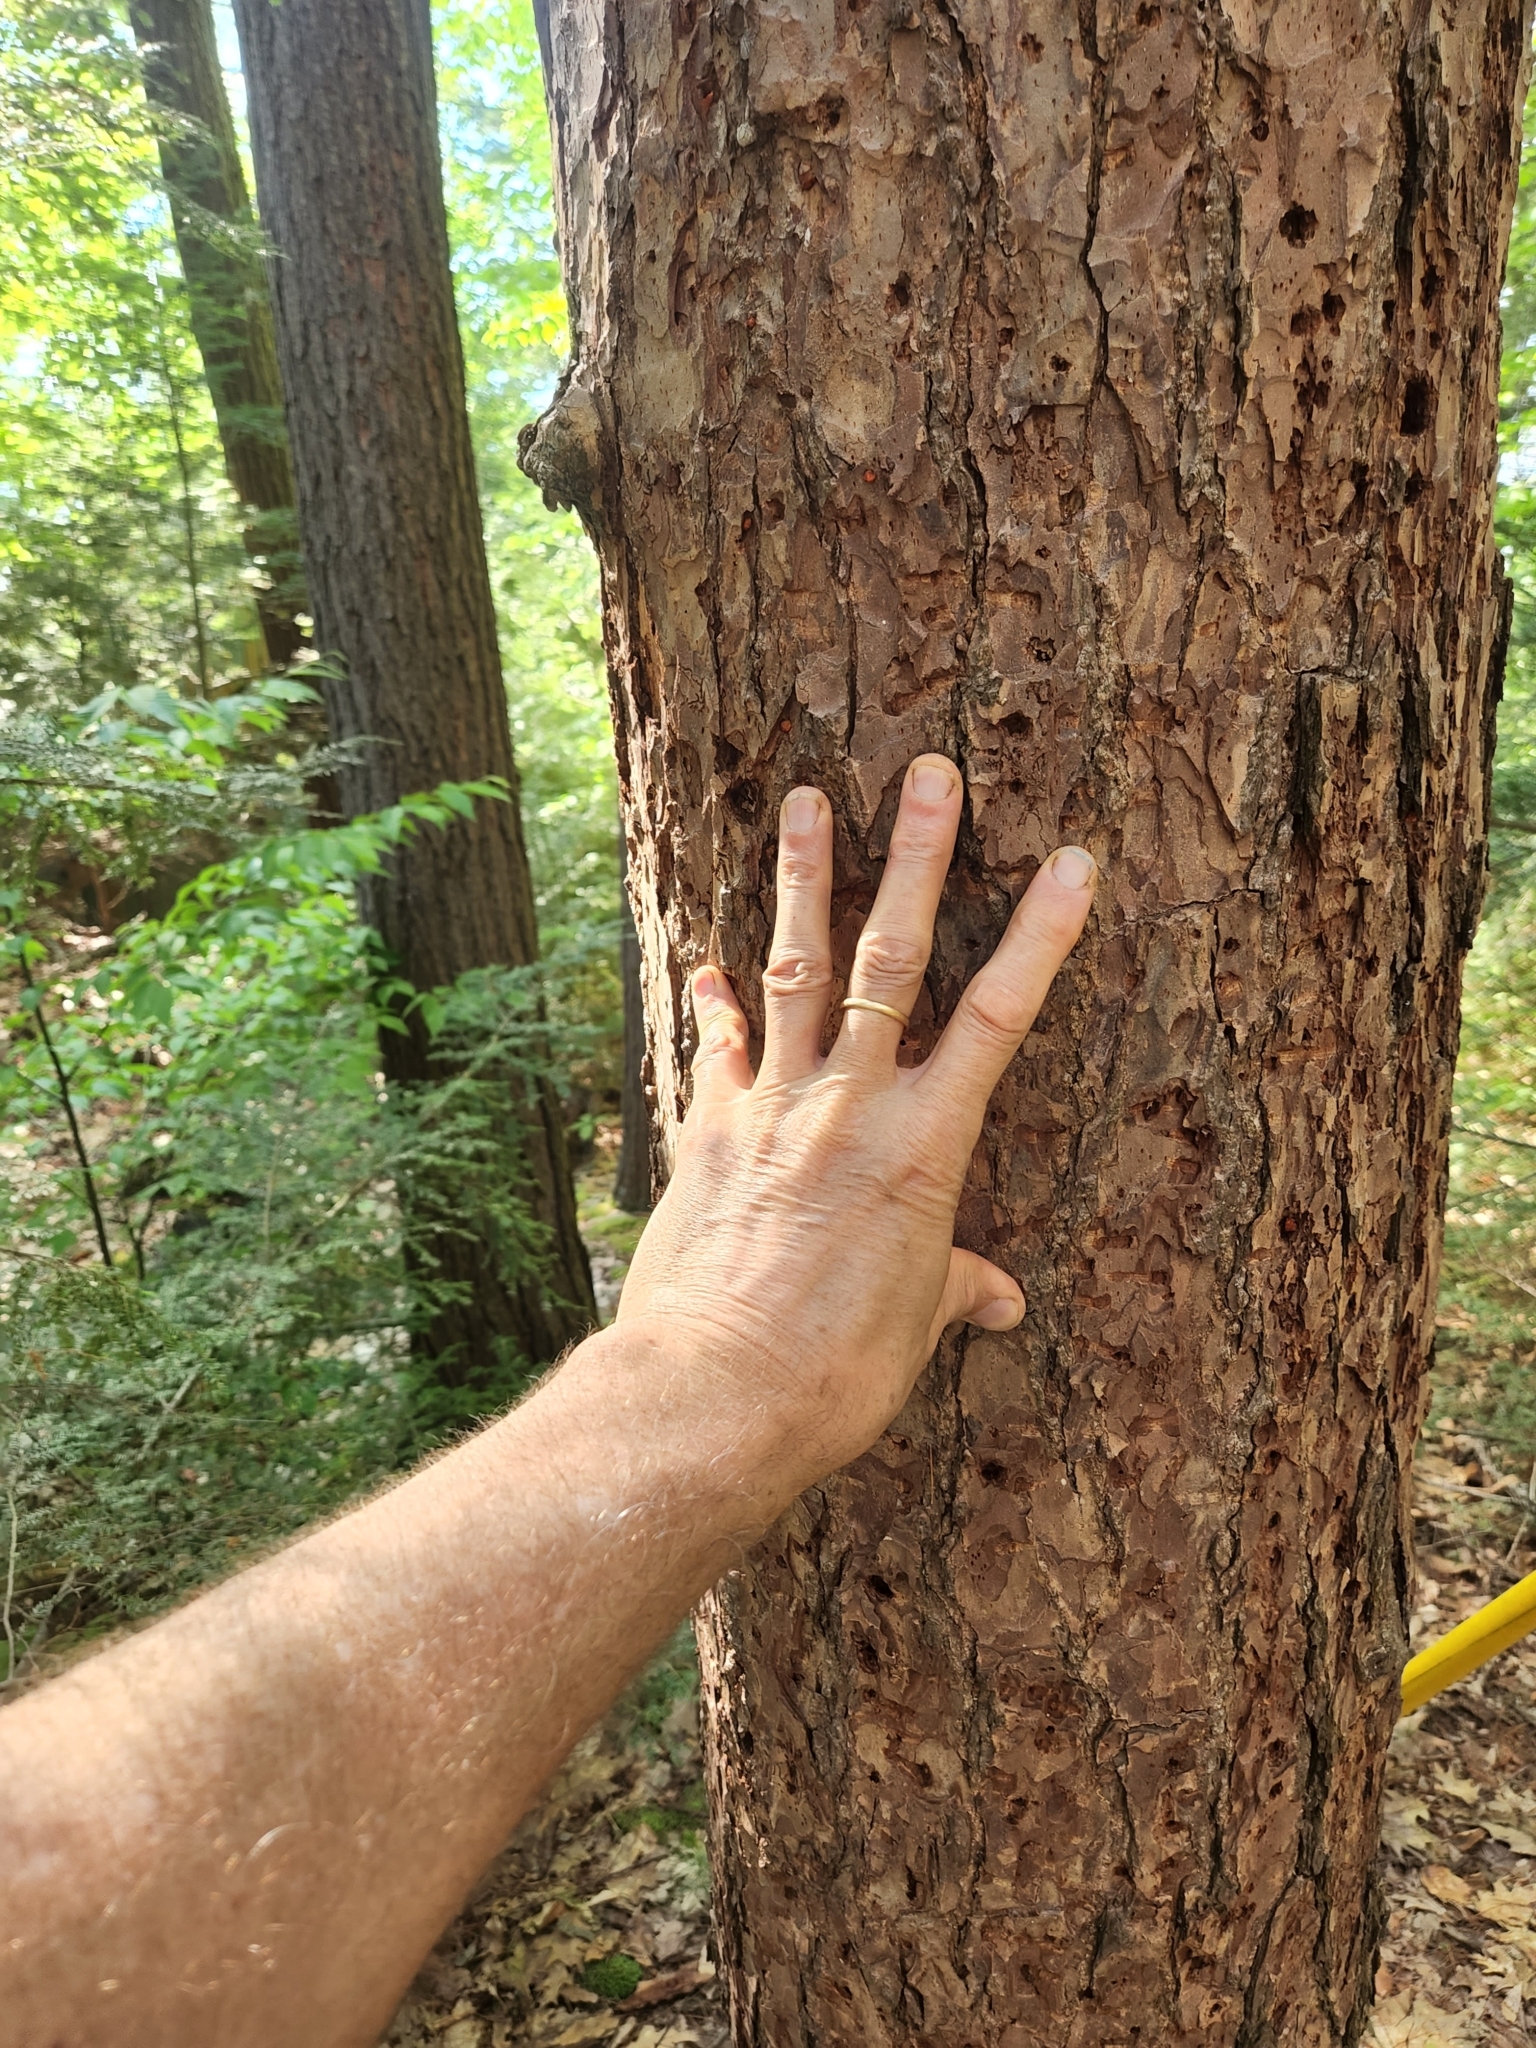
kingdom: Plantae
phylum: Tracheophyta
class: Pinopsida
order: Pinales
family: Pinaceae
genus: Tsuga
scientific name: Tsuga canadensis
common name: Eastern hemlock
